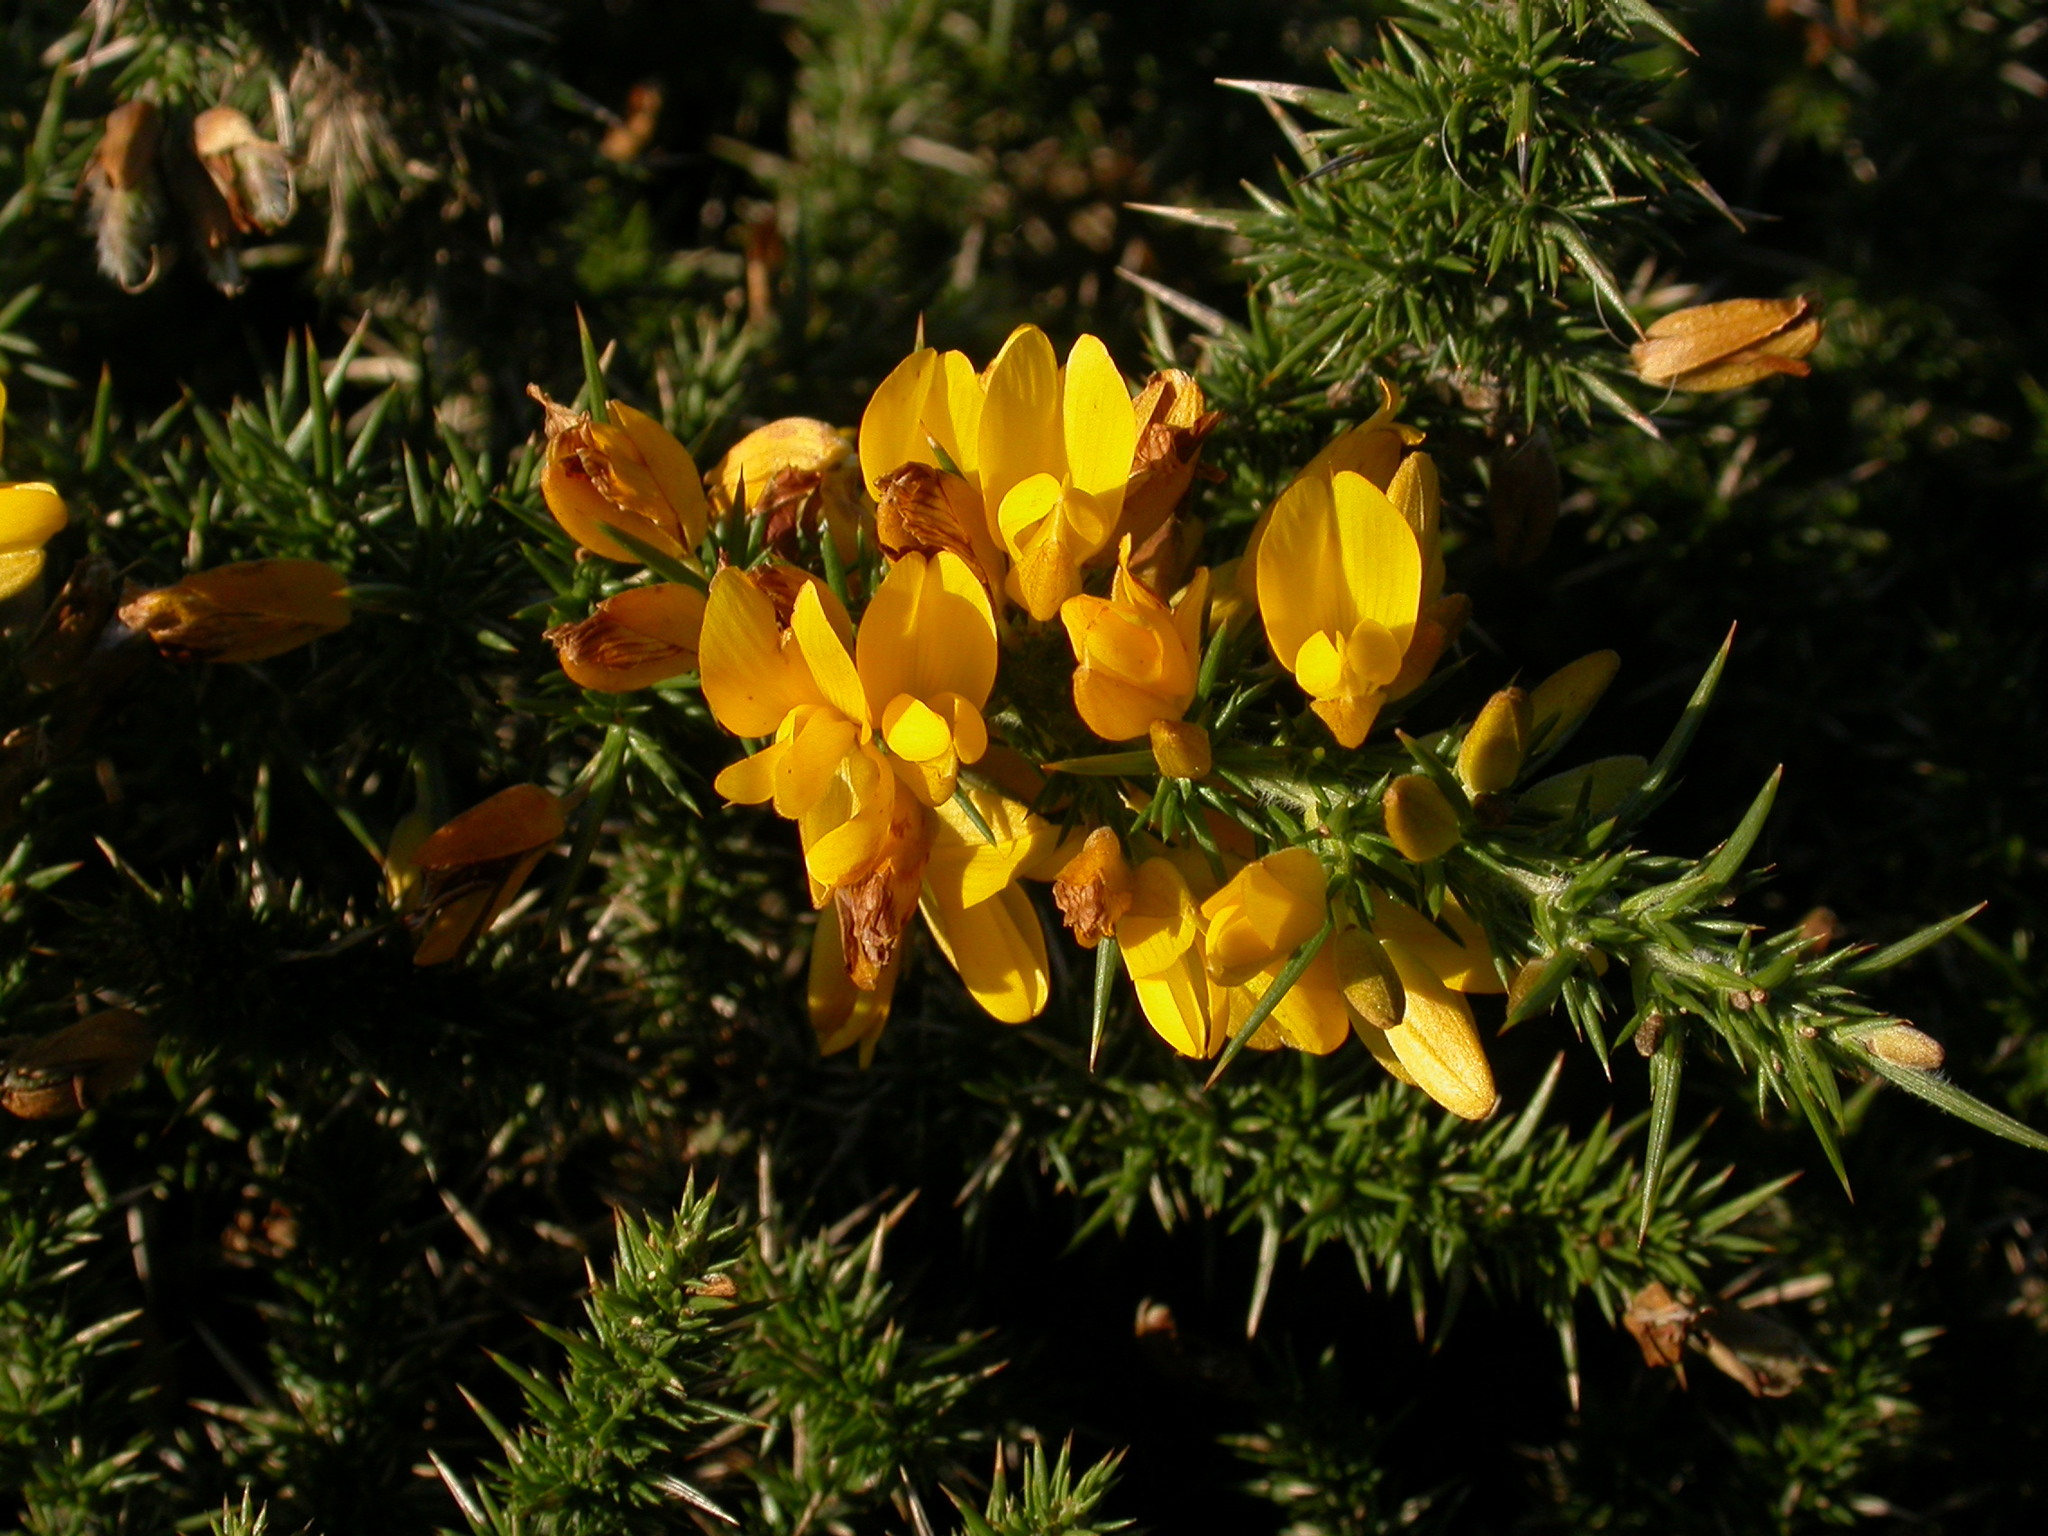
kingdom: Plantae
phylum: Tracheophyta
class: Magnoliopsida
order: Fabales
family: Fabaceae
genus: Ulex
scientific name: Ulex europaeus
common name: Common gorse
